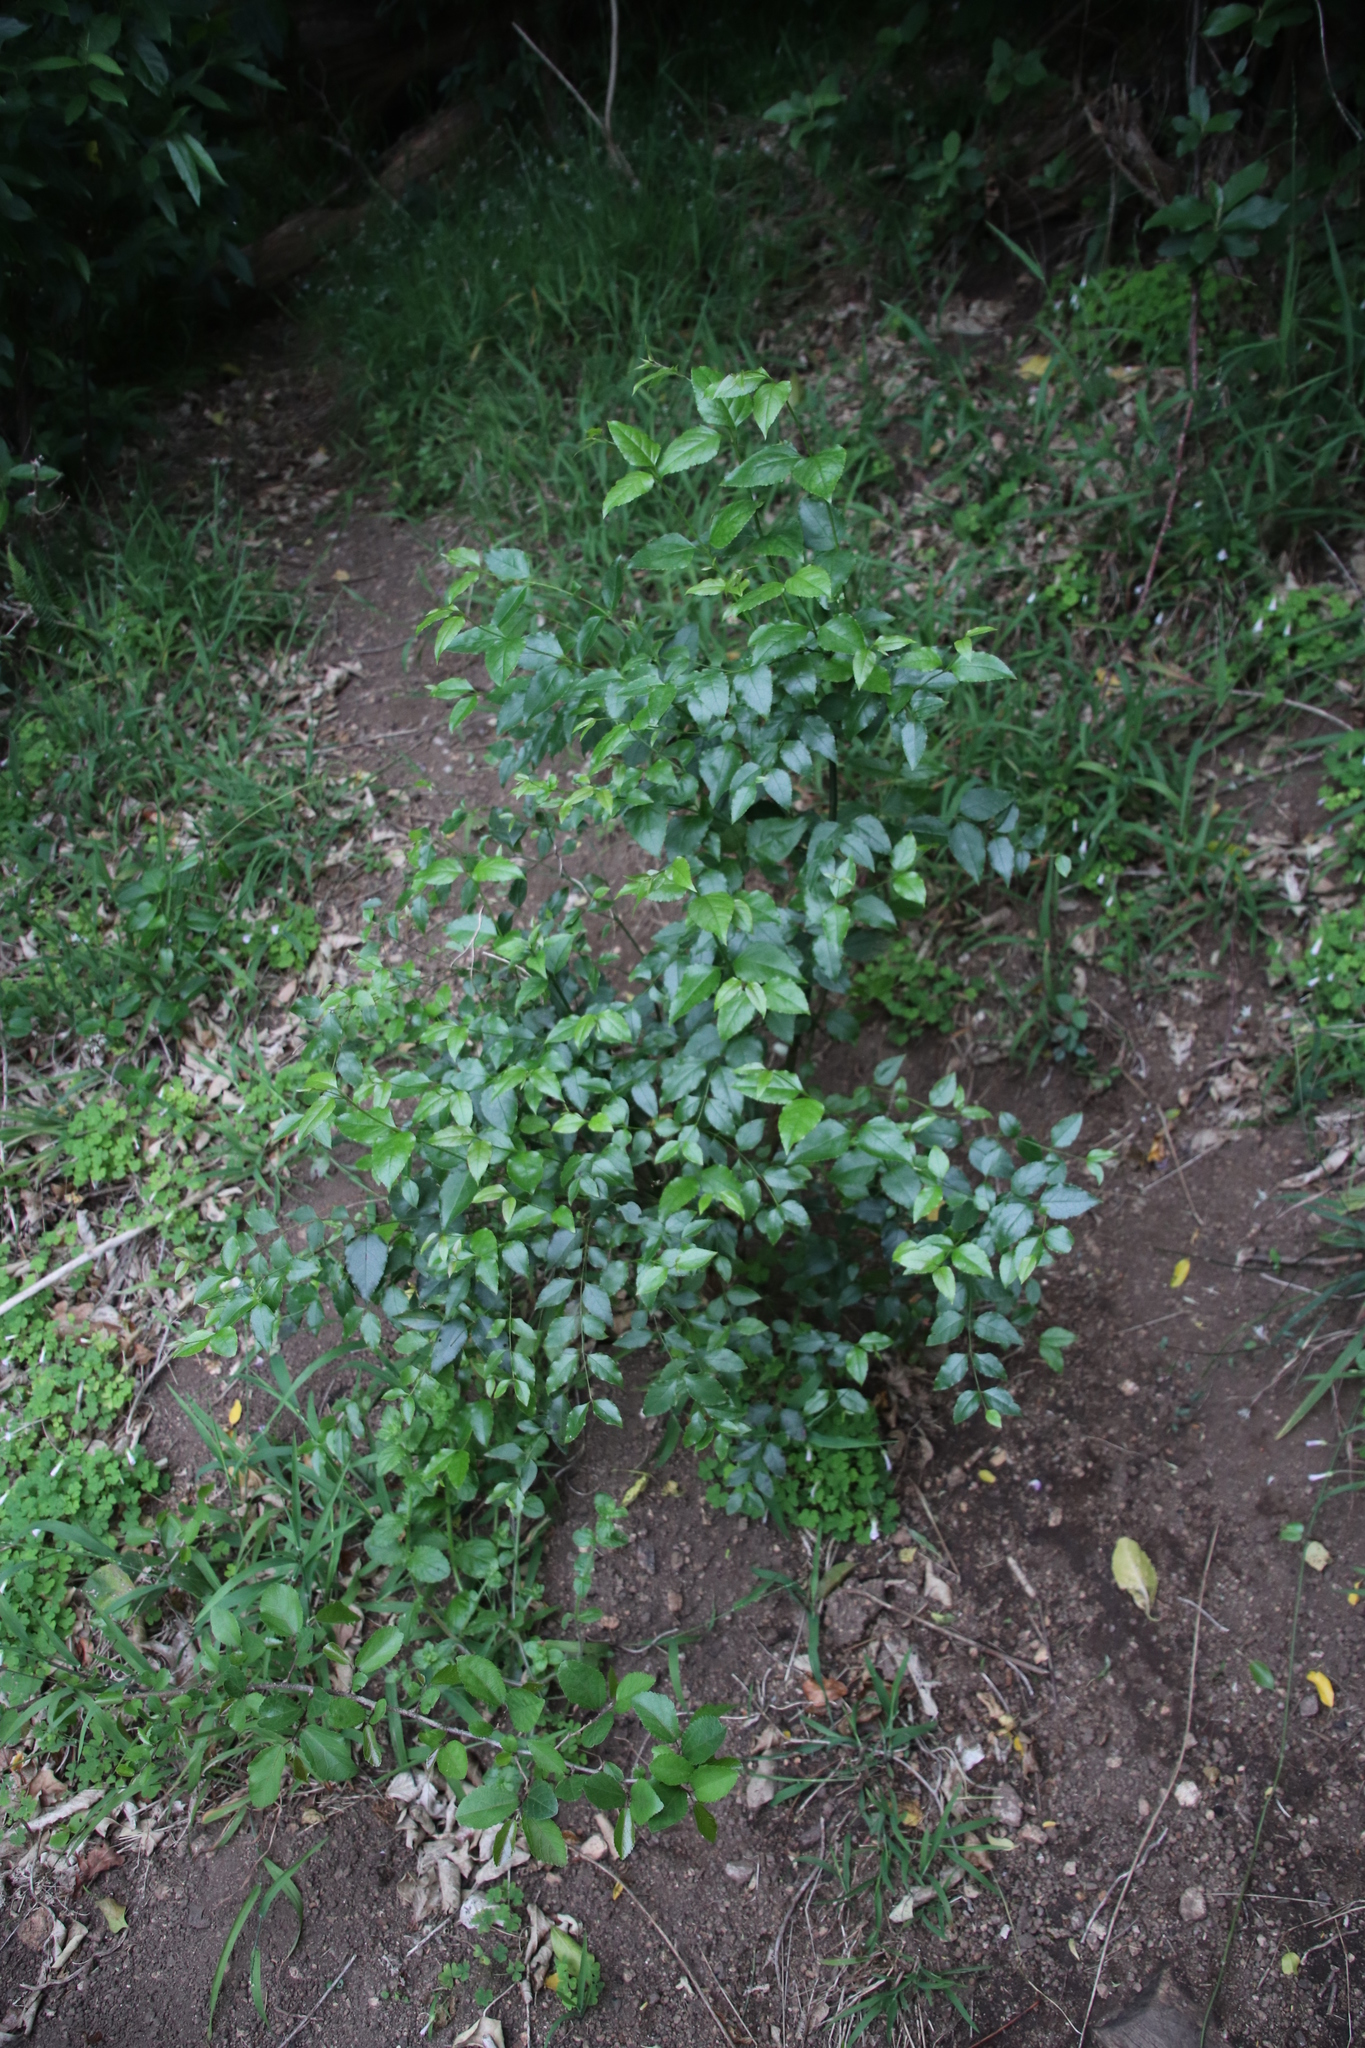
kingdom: Plantae
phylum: Tracheophyta
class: Magnoliopsida
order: Lamiales
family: Stilbaceae
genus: Halleria
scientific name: Halleria lucida
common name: Tree fuschia
